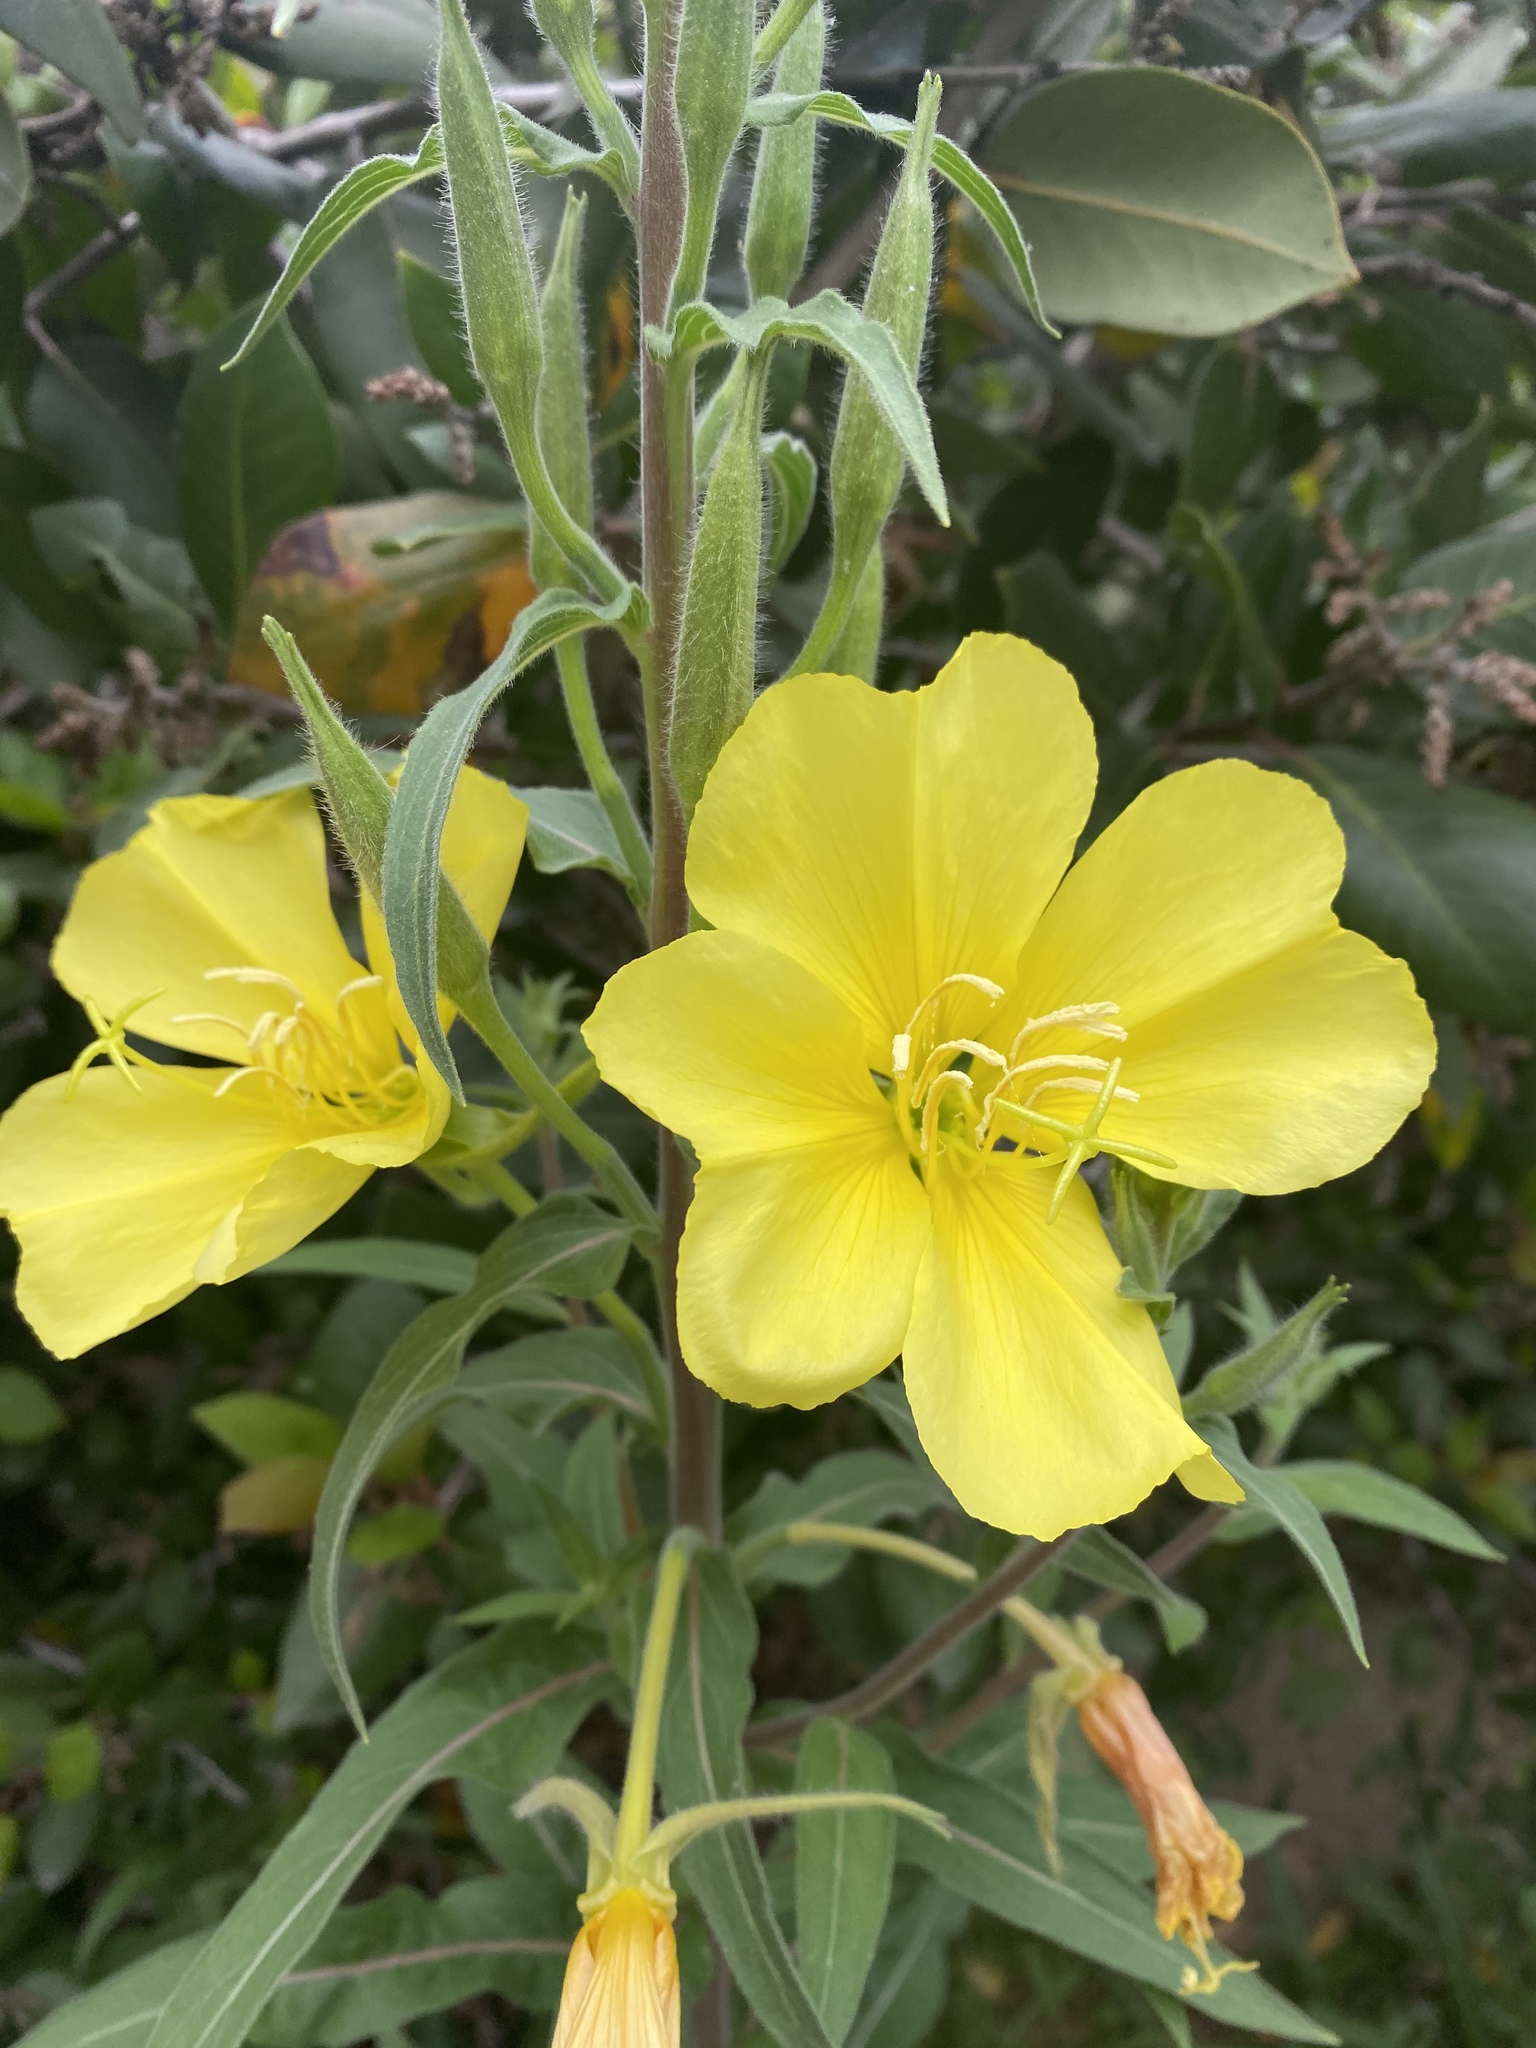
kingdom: Plantae
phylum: Tracheophyta
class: Magnoliopsida
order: Myrtales
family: Onagraceae
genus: Oenothera
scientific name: Oenothera elata
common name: Hooker's evening-primrose
